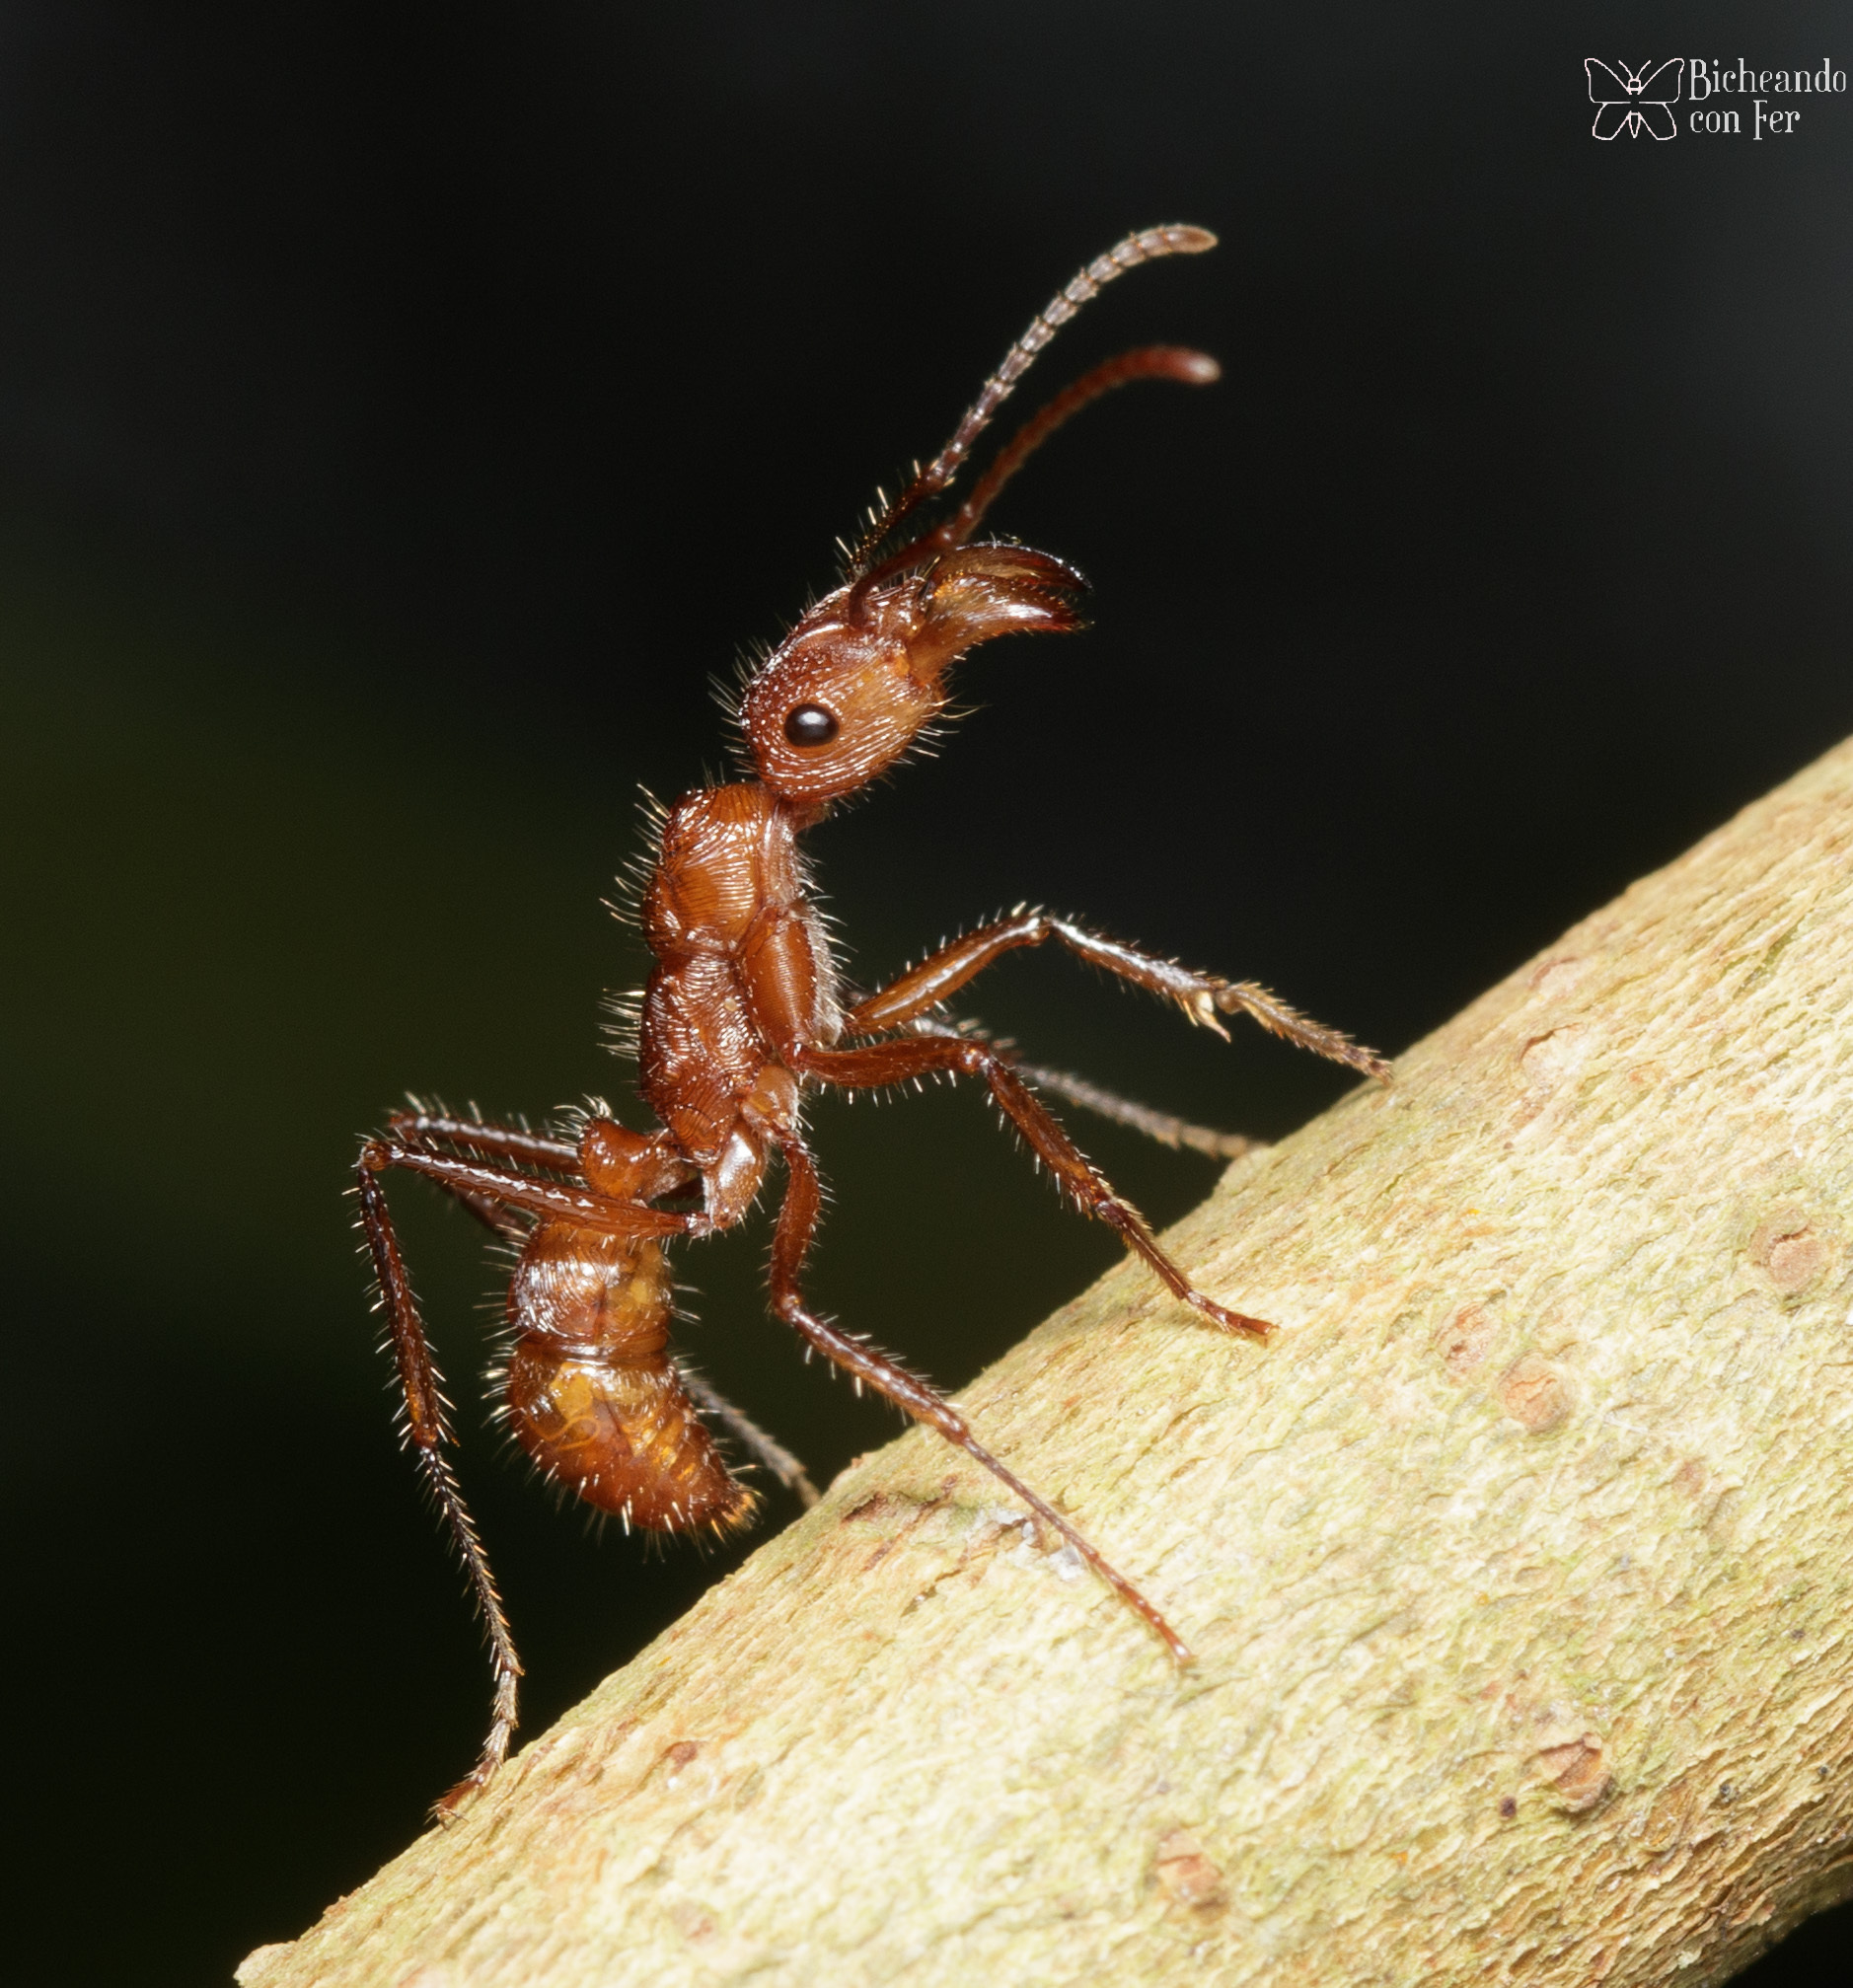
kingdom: Animalia
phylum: Arthropoda
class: Insecta
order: Hymenoptera
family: Formicidae
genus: Ectatomma
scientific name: Ectatomma tuberculatum
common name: Ant
